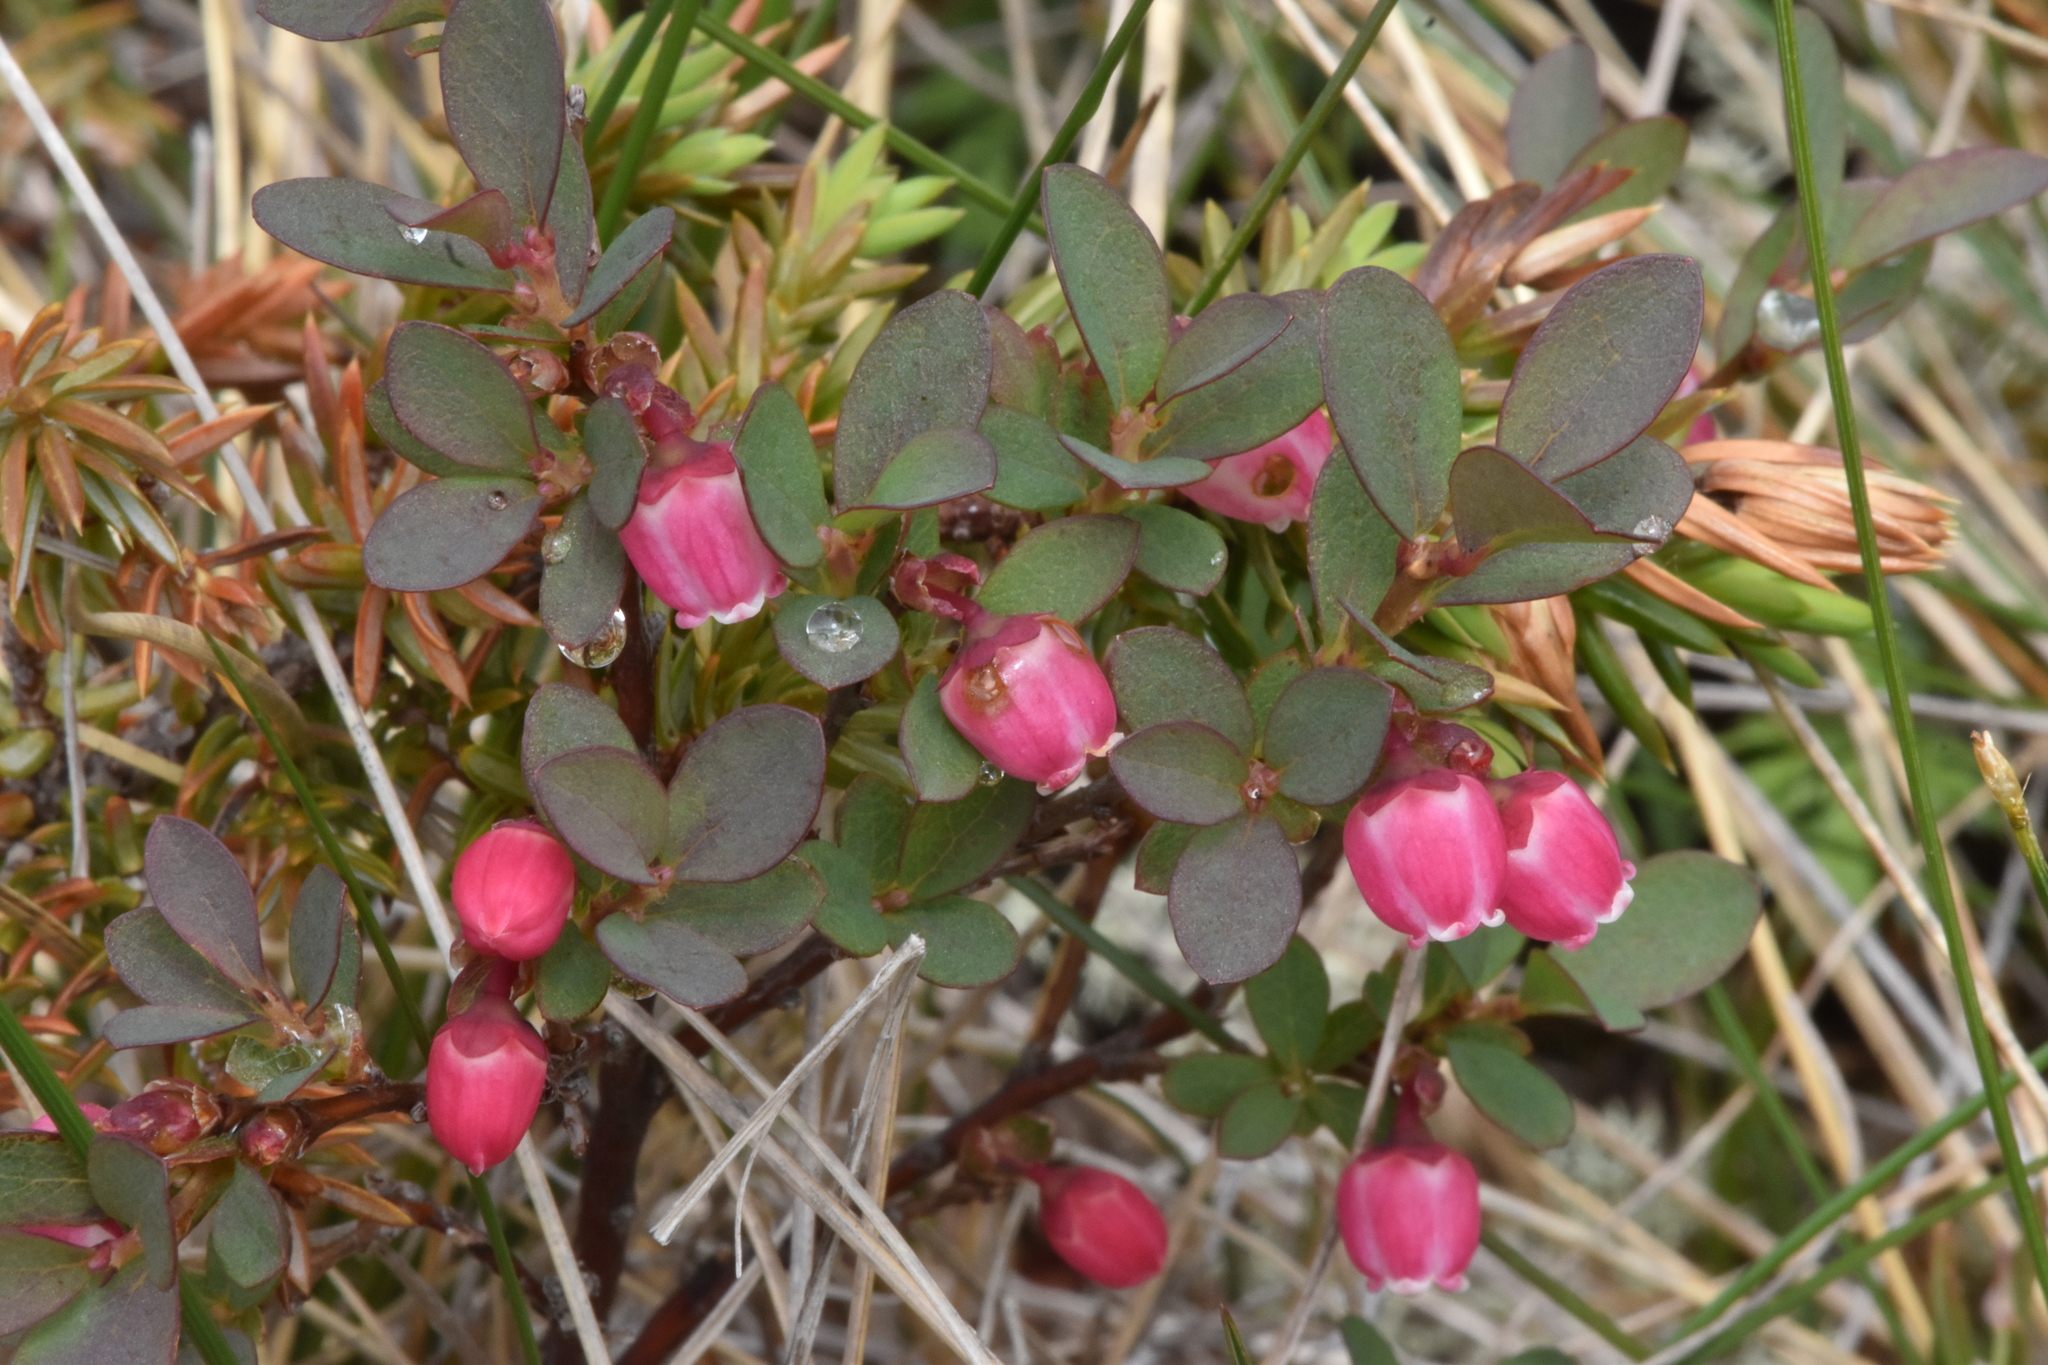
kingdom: Plantae
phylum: Tracheophyta
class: Magnoliopsida
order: Ericales
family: Ericaceae
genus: Vaccinium
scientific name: Vaccinium uliginosum
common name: Bog bilberry
